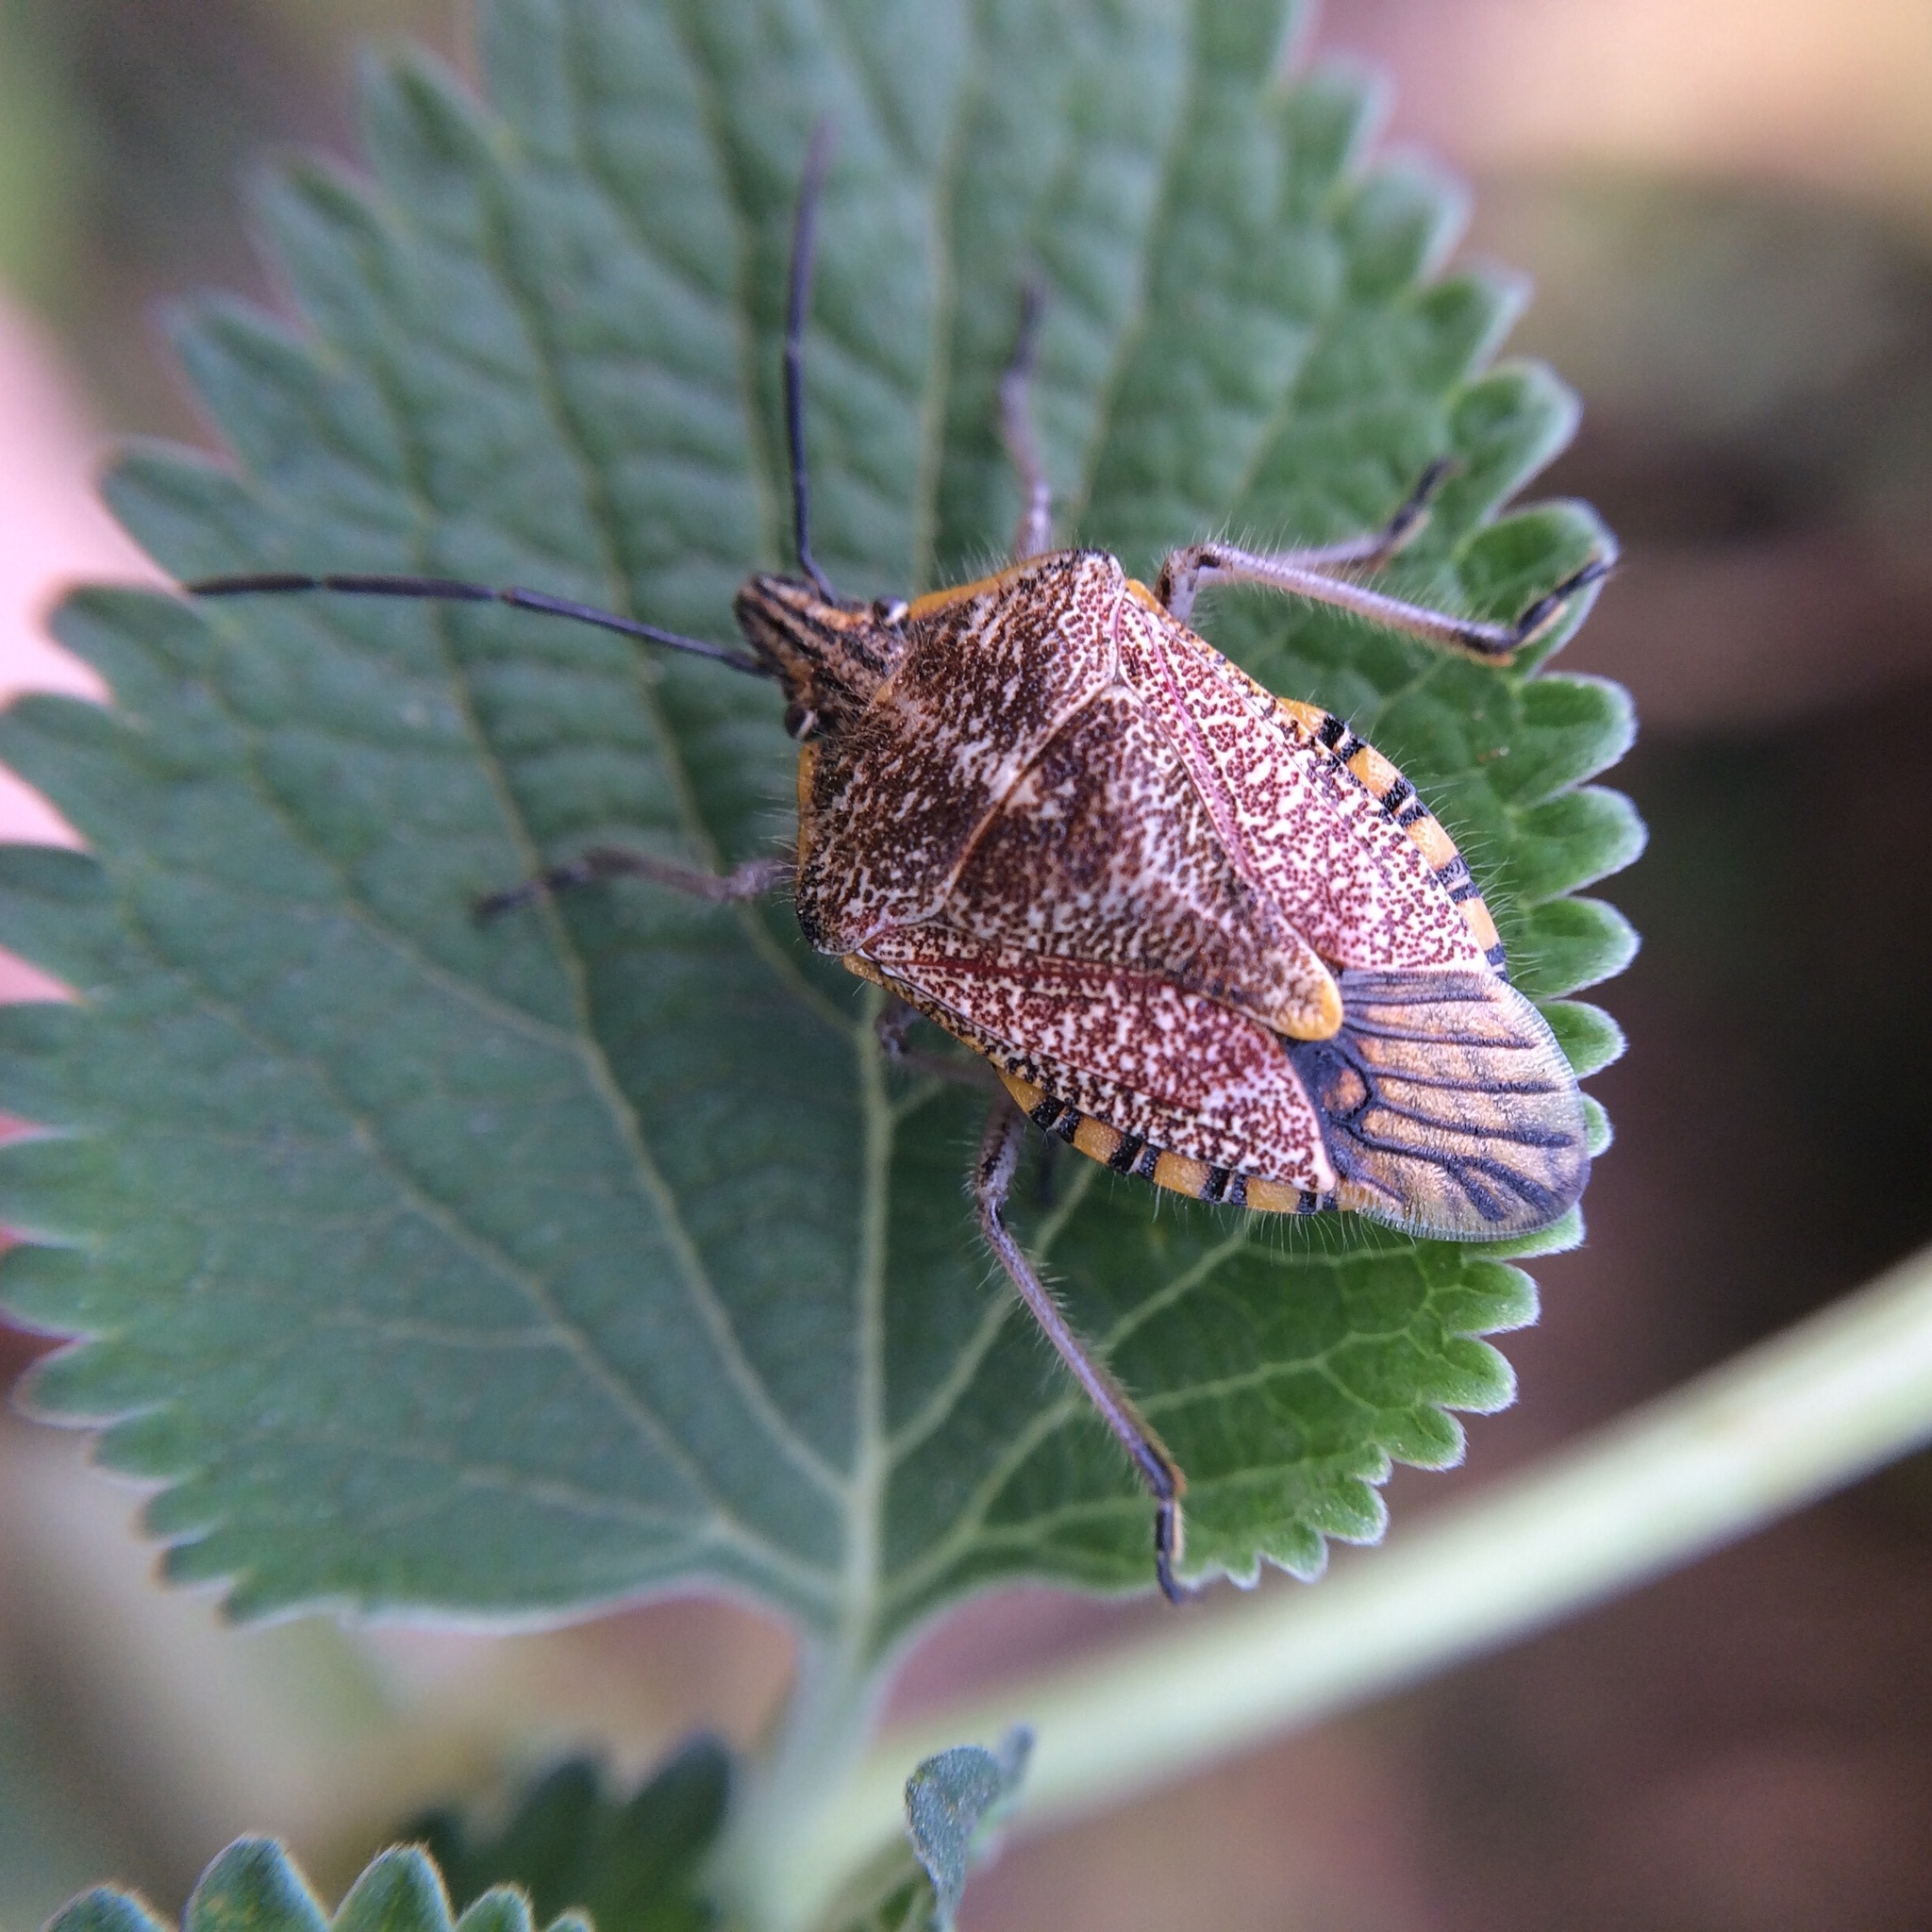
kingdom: Animalia
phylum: Arthropoda
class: Insecta
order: Hemiptera
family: Pentatomidae
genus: Agonoscelis
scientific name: Agonoscelis versicoloratus
